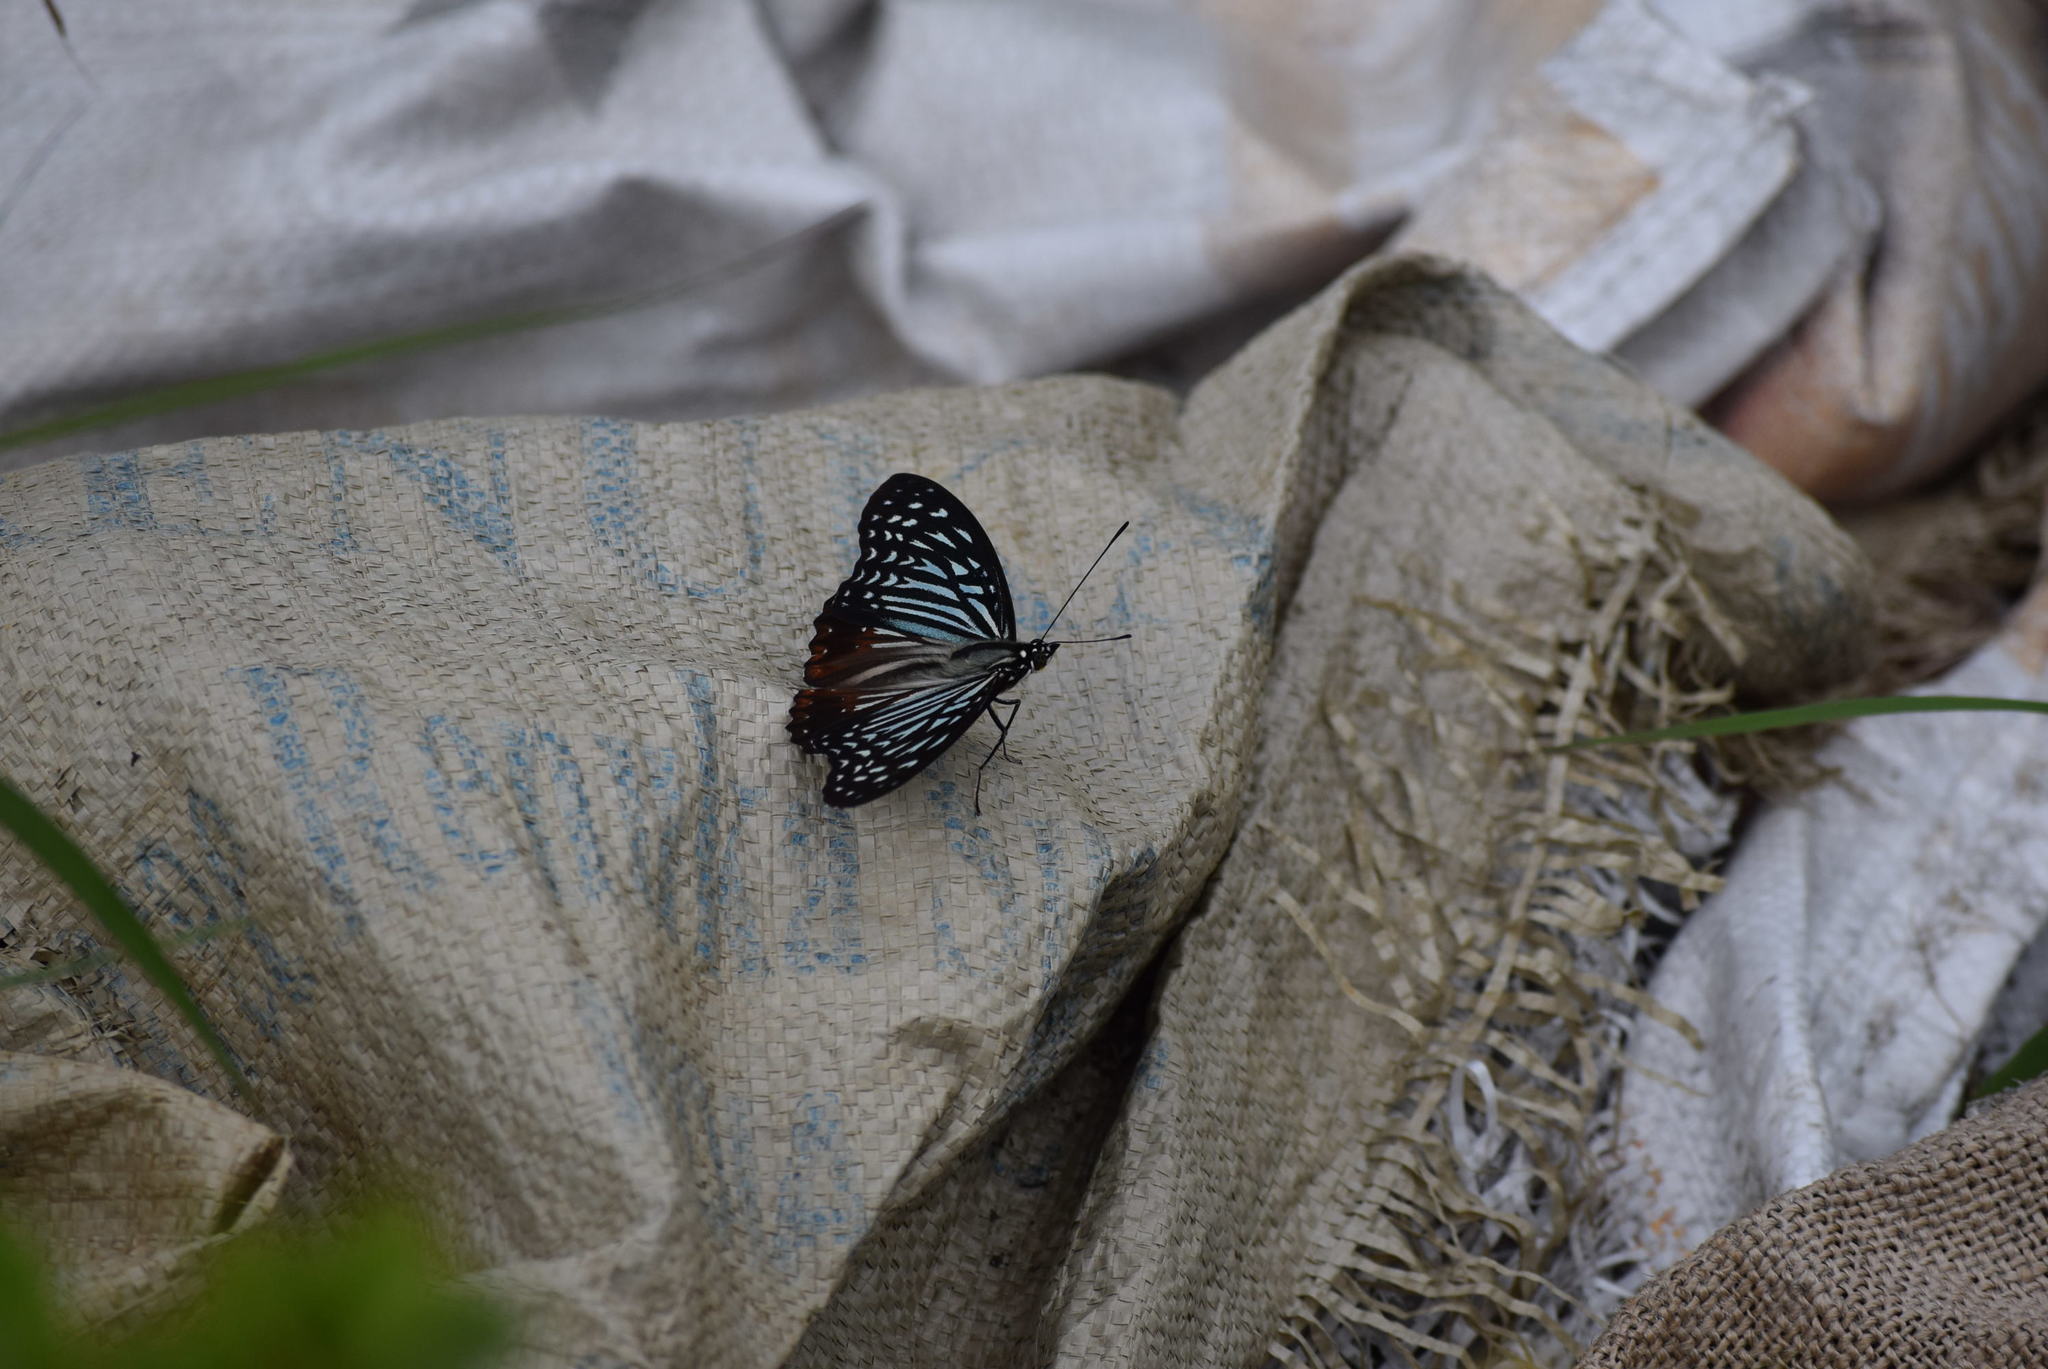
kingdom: Animalia
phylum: Arthropoda
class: Insecta
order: Lepidoptera
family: Nymphalidae
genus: Parantica
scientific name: Parantica sita
